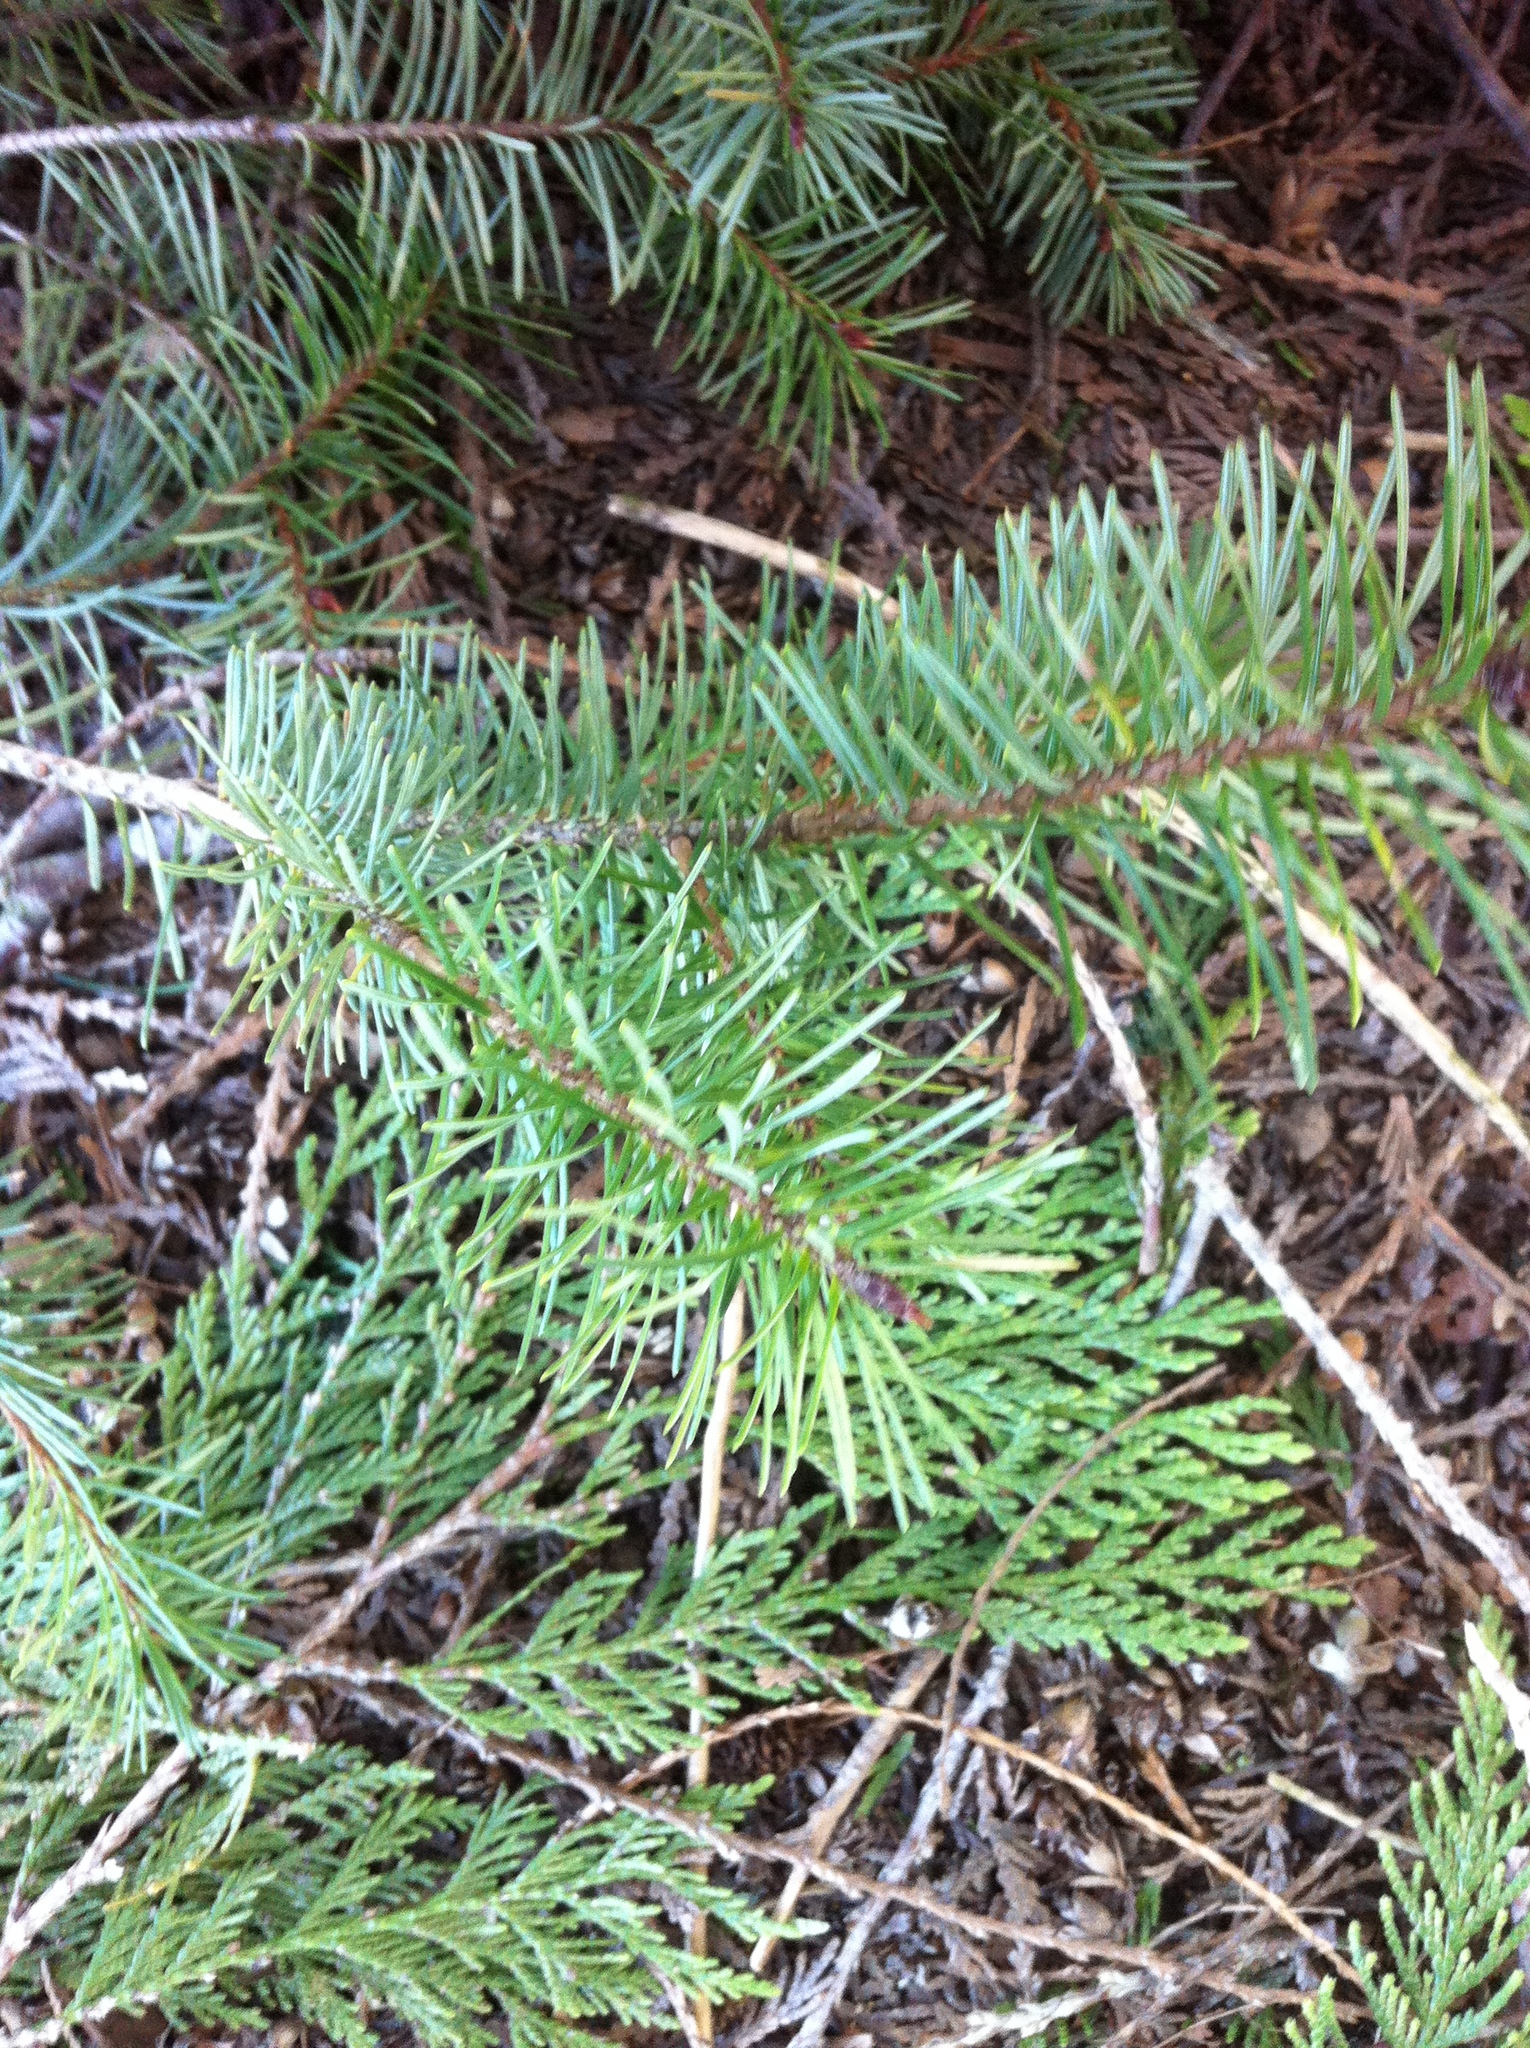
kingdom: Plantae
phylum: Tracheophyta
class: Pinopsida
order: Pinales
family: Pinaceae
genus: Pseudotsuga
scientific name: Pseudotsuga menziesii
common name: Douglas fir
